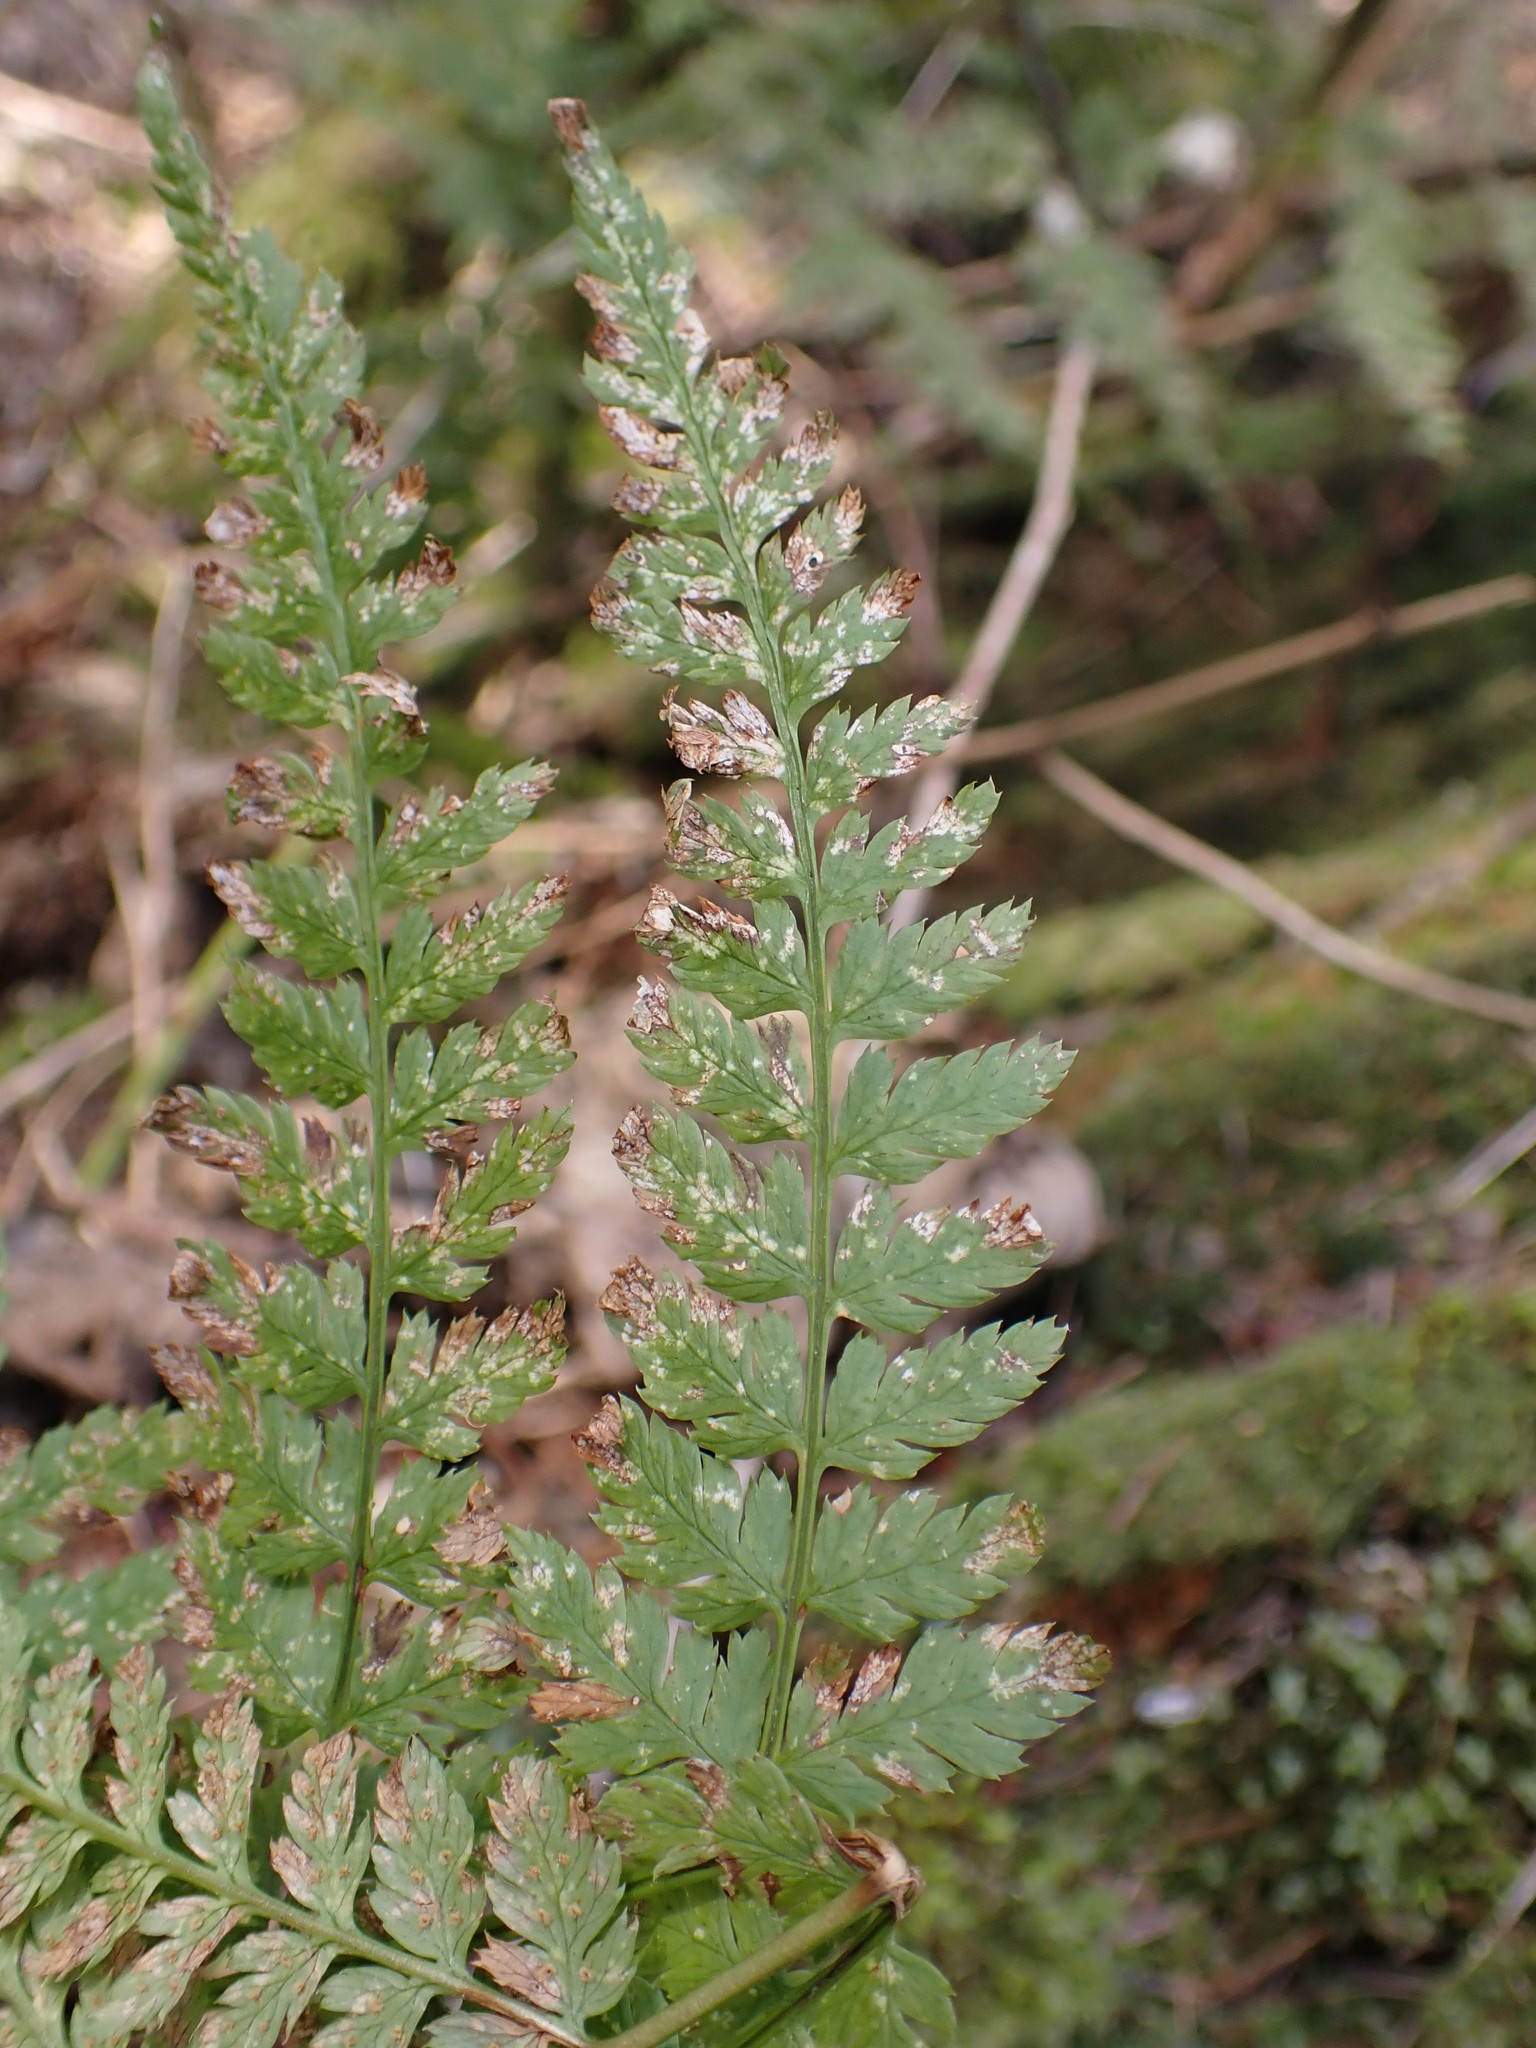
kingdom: Plantae
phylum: Tracheophyta
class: Polypodiopsida
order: Polypodiales
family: Dryopteridaceae
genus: Dryopteris
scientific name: Dryopteris expansa
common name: Northern buckler fern
